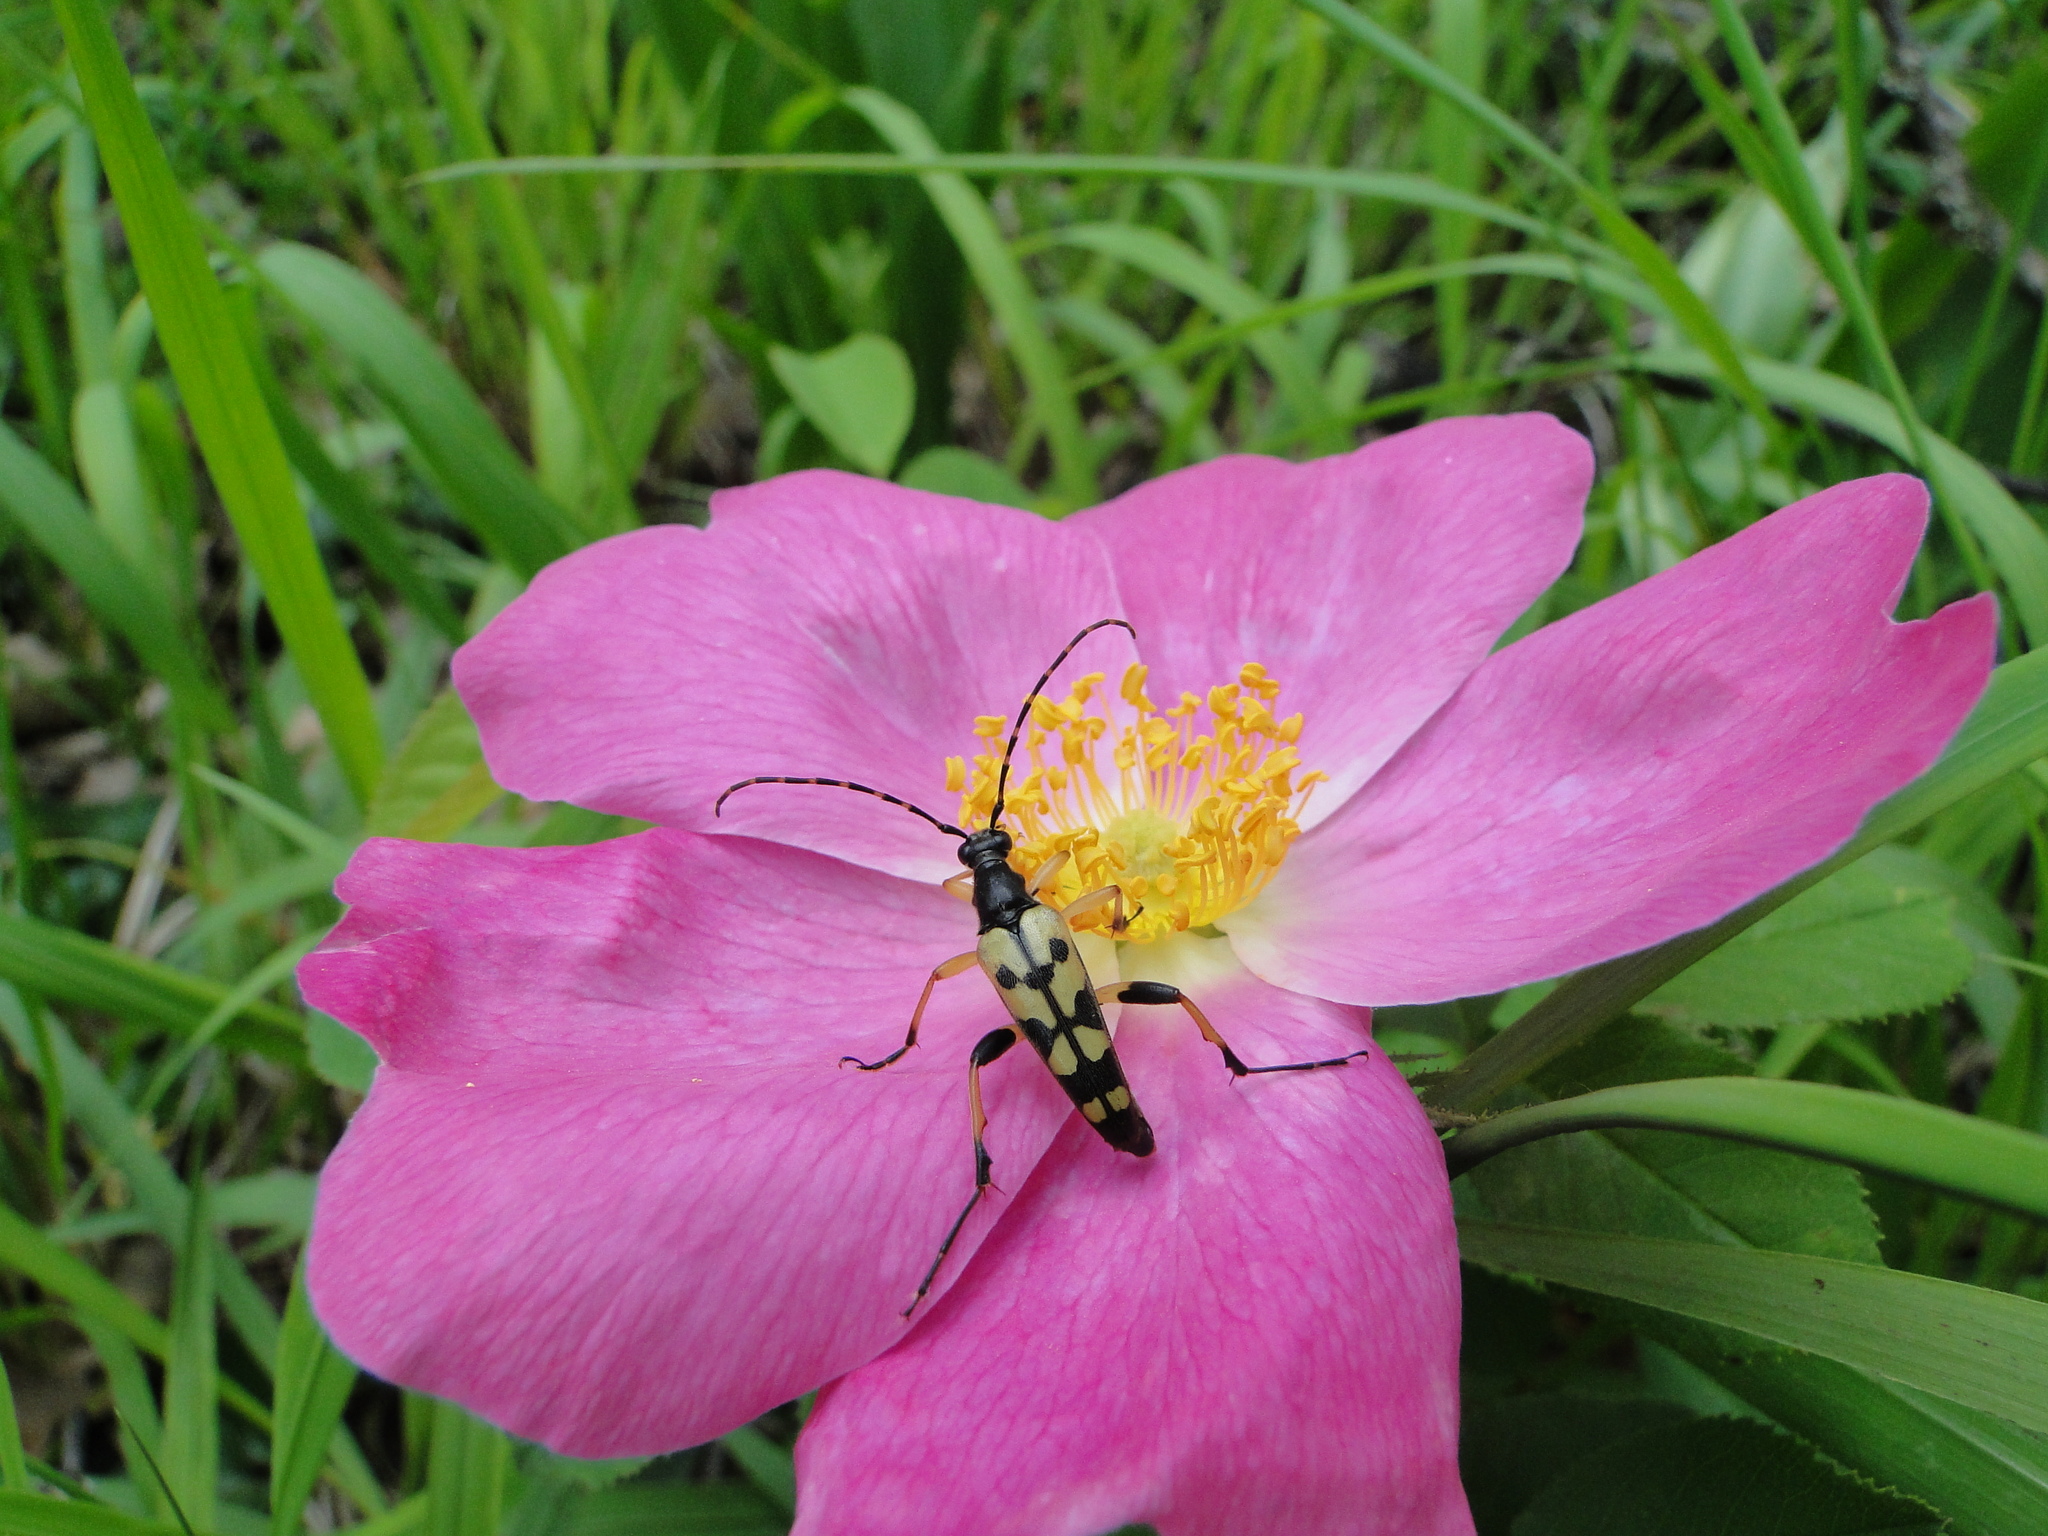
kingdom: Animalia
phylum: Arthropoda
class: Insecta
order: Coleoptera
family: Cerambycidae
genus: Rutpela
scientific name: Rutpela maculata
